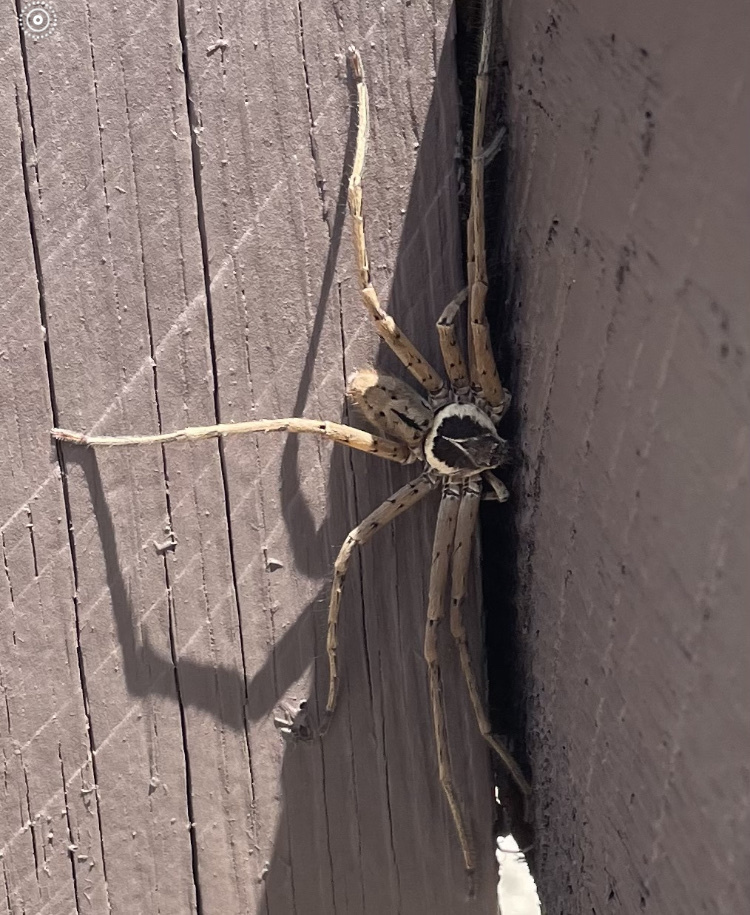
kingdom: Animalia
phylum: Arthropoda
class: Arachnida
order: Araneae
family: Sparassidae
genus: Heteropoda
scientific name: Heteropoda venatoria
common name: Huntsman spider
